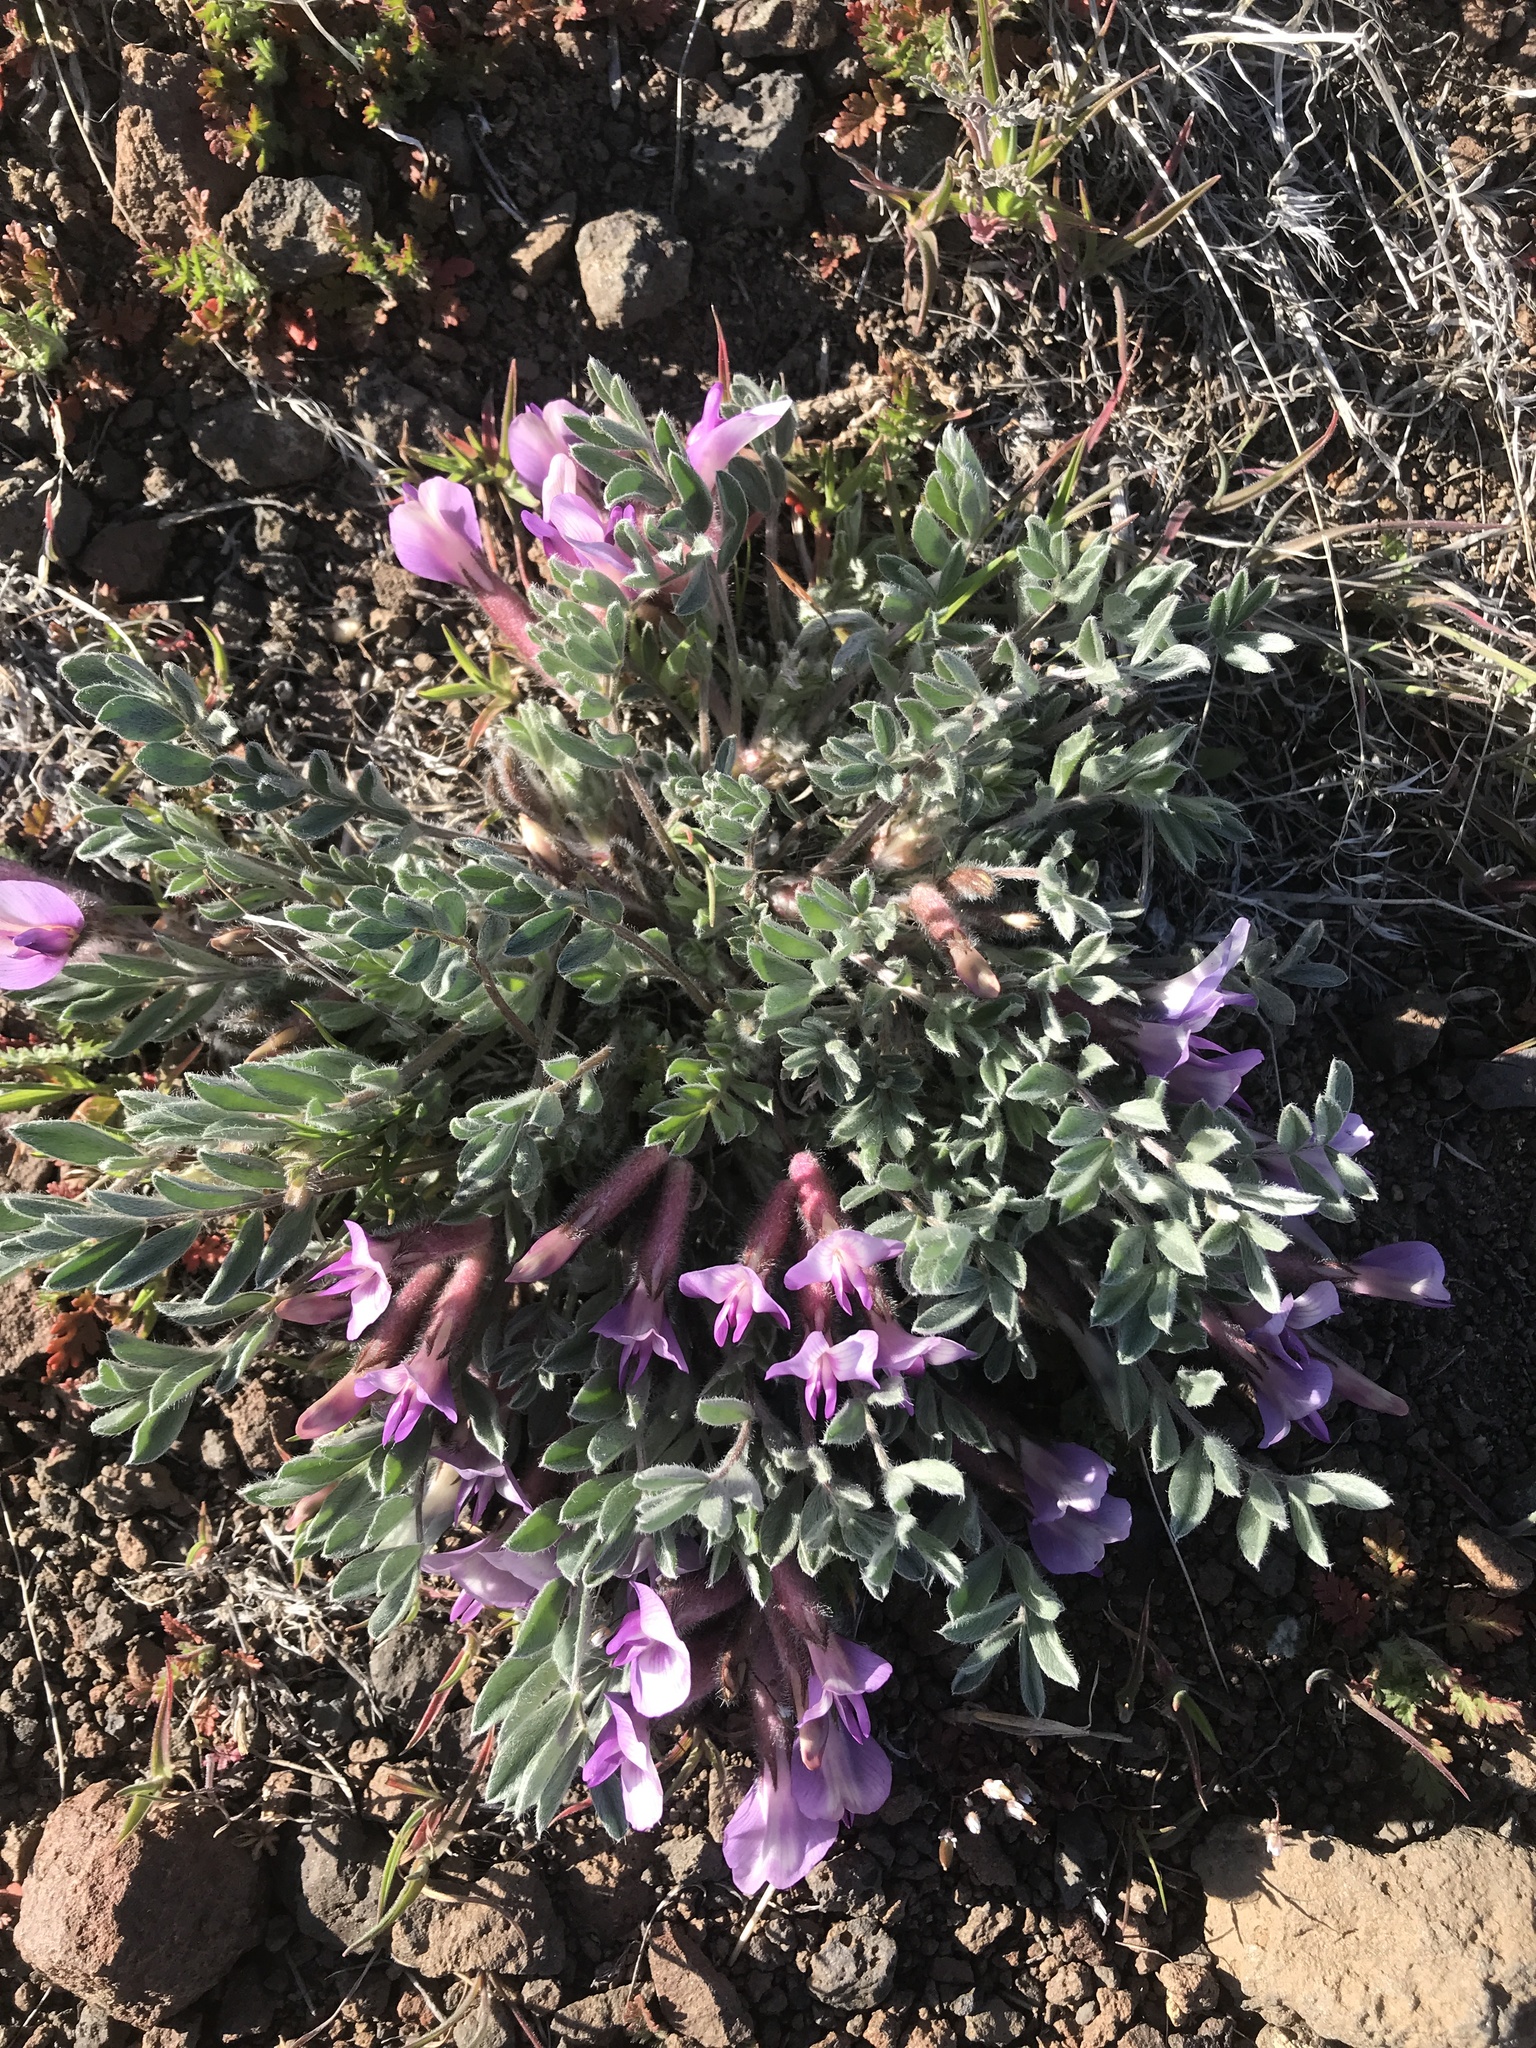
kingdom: Plantae
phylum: Tracheophyta
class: Magnoliopsida
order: Fabales
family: Fabaceae
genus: Astragalus
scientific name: Astragalus purshii
